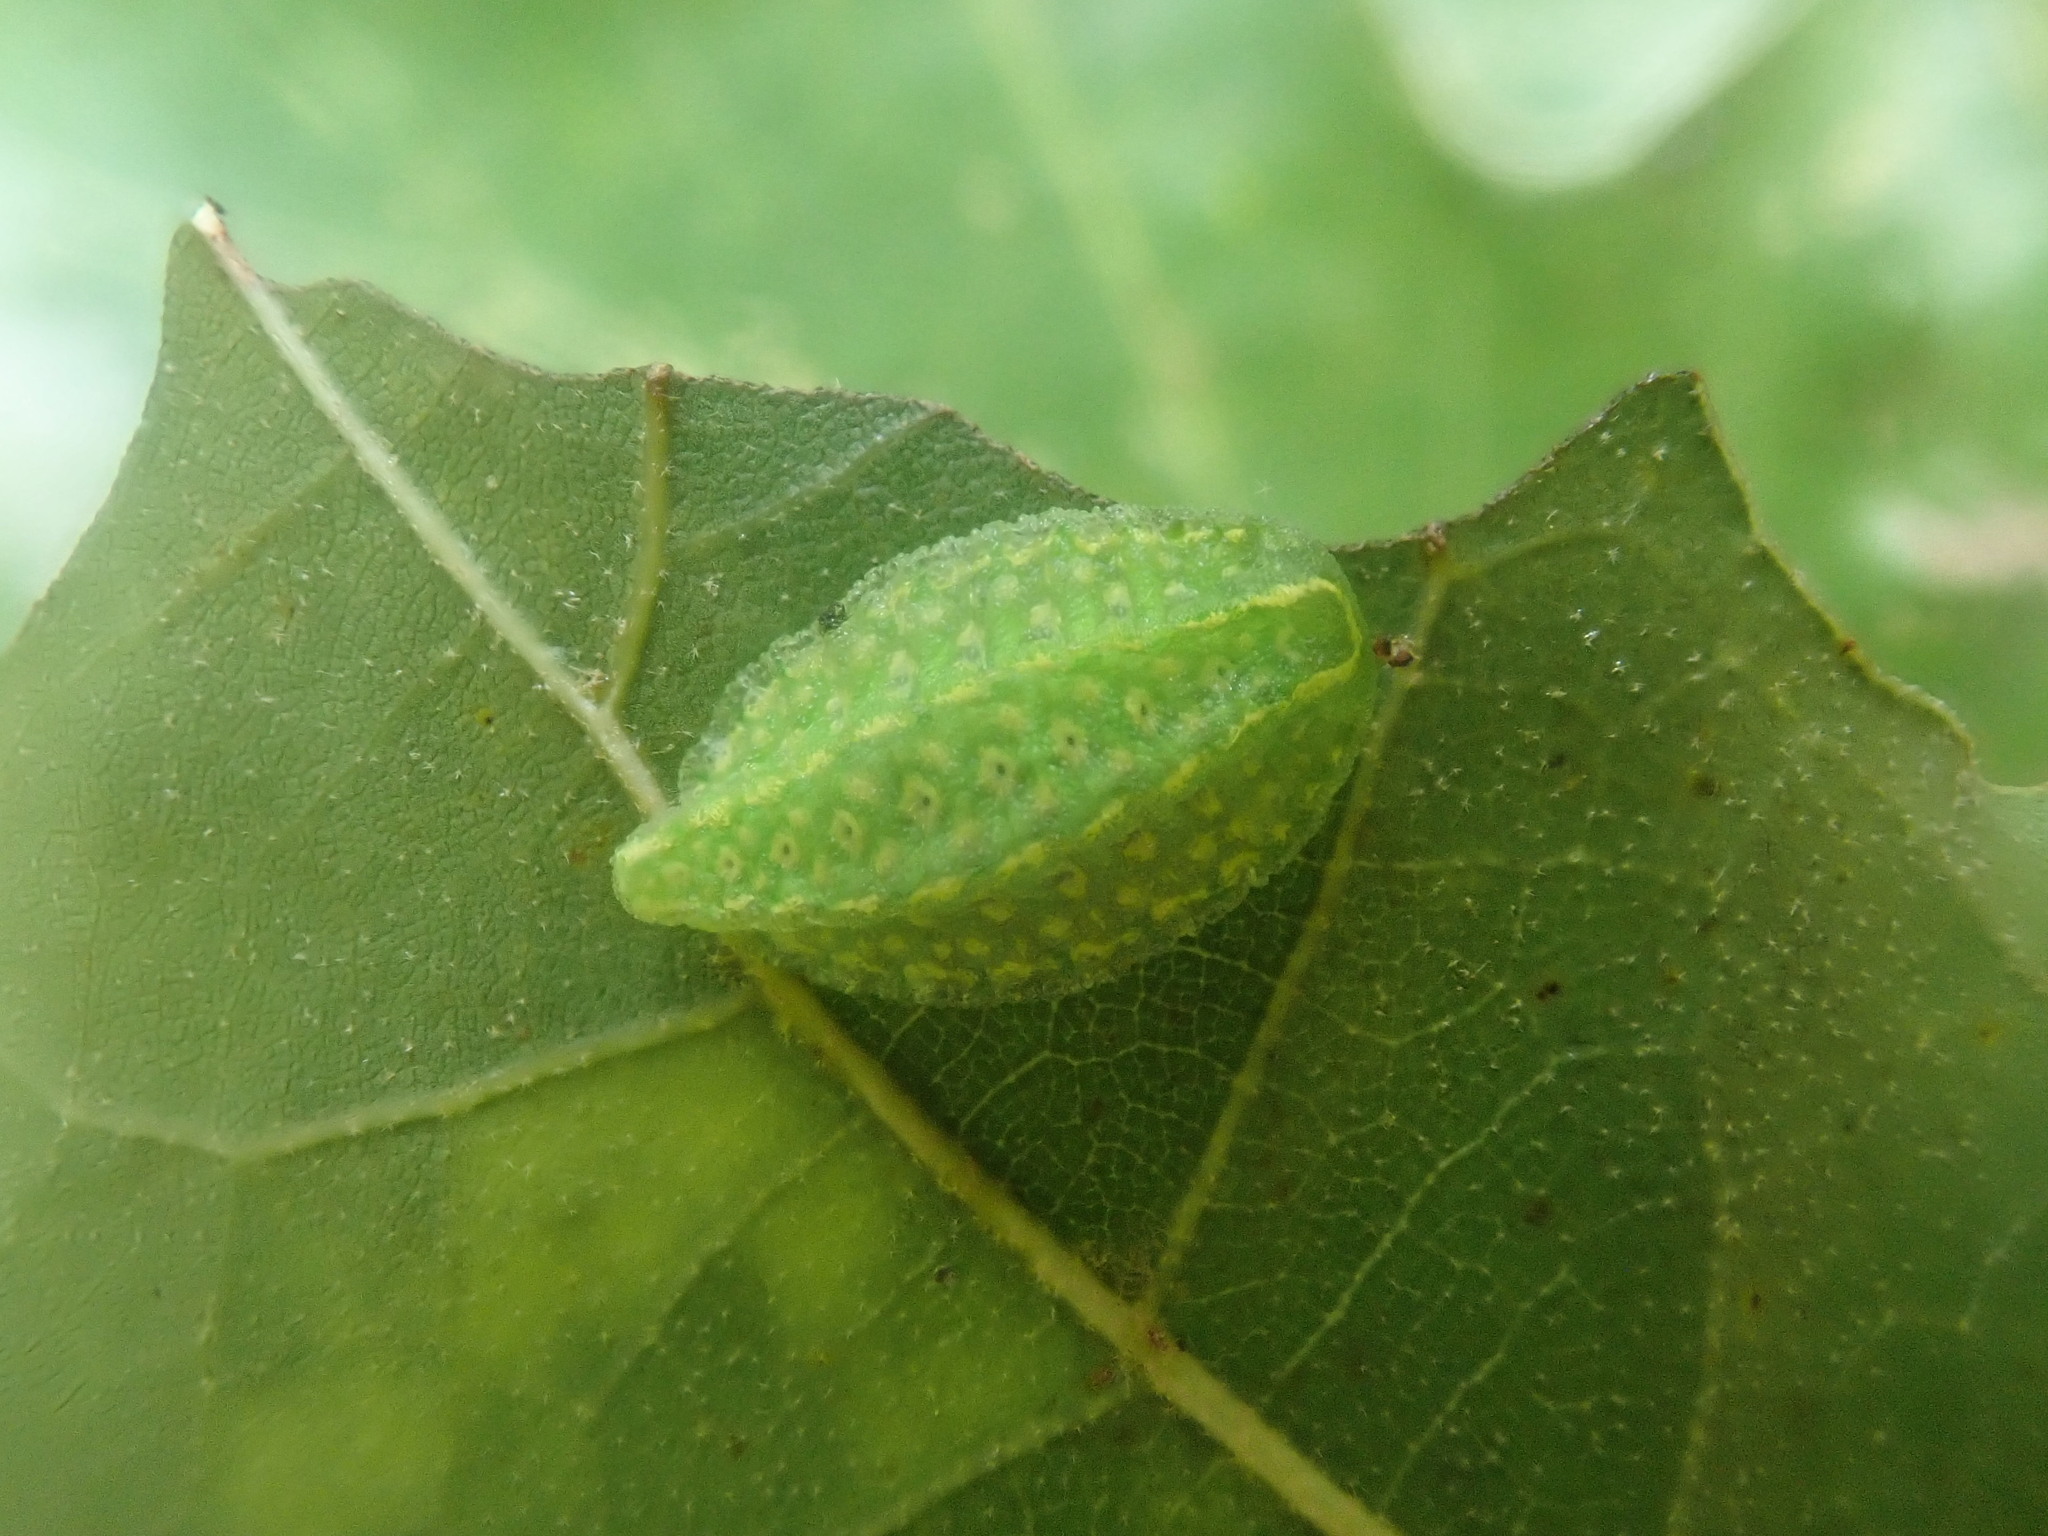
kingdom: Animalia
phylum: Arthropoda
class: Insecta
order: Lepidoptera
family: Limacodidae
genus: Lithacodes
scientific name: Lithacodes fasciola
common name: Yellow-shouldered slug moth
